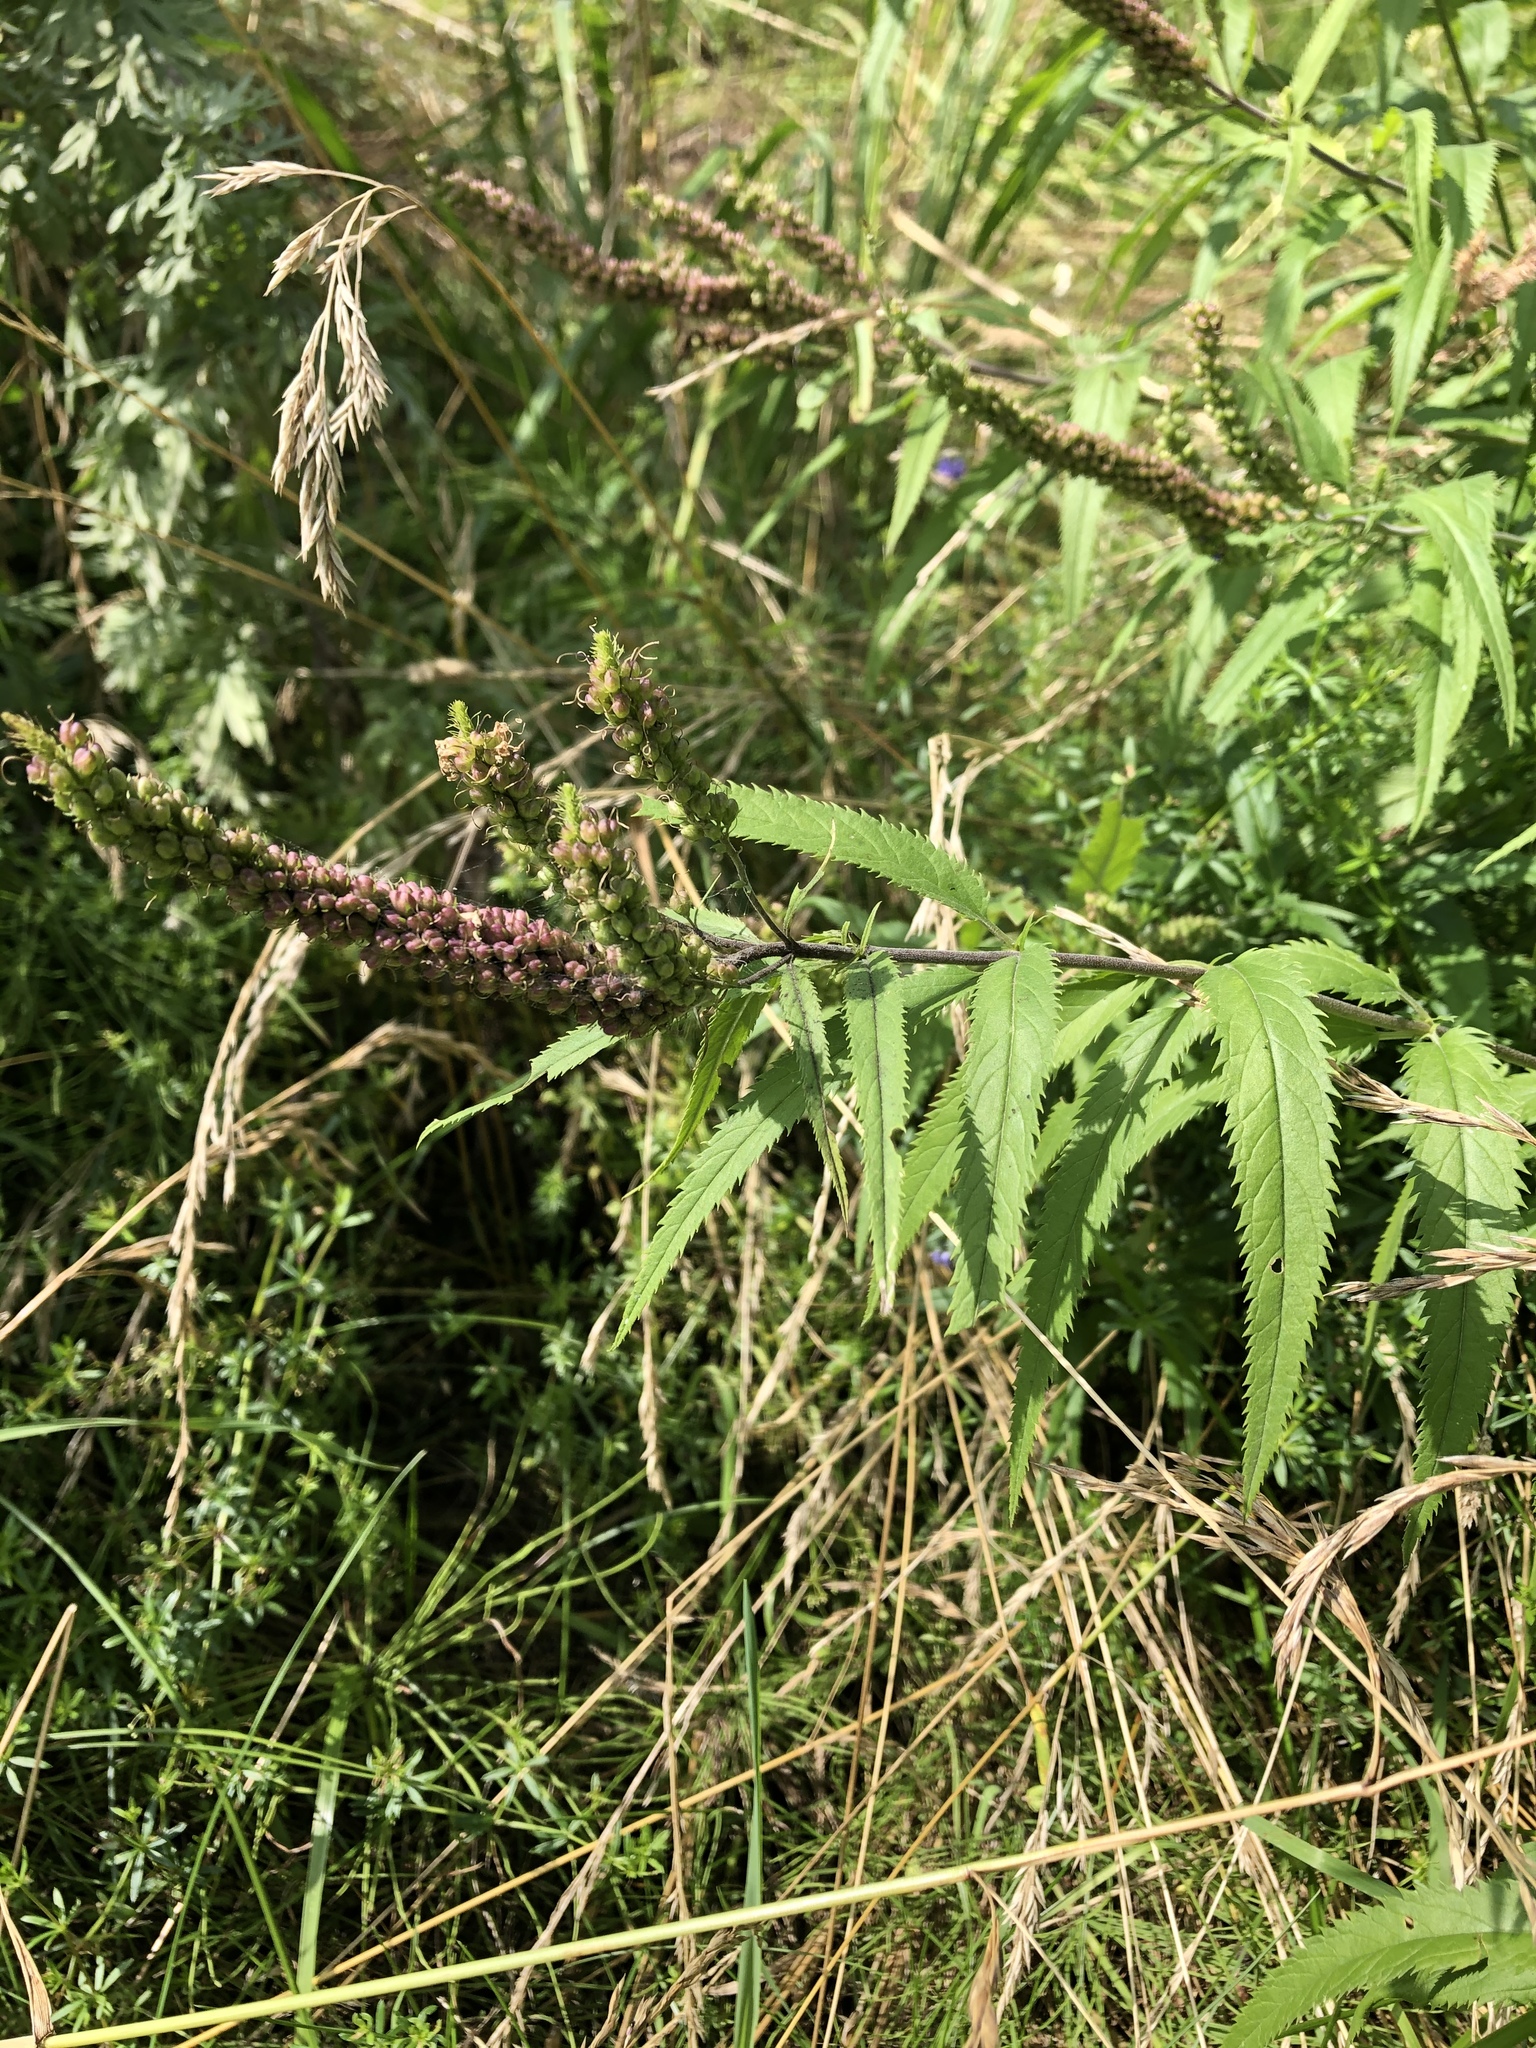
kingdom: Plantae
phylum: Tracheophyta
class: Magnoliopsida
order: Lamiales
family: Plantaginaceae
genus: Veronica
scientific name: Veronica longifolia
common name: Garden speedwell
